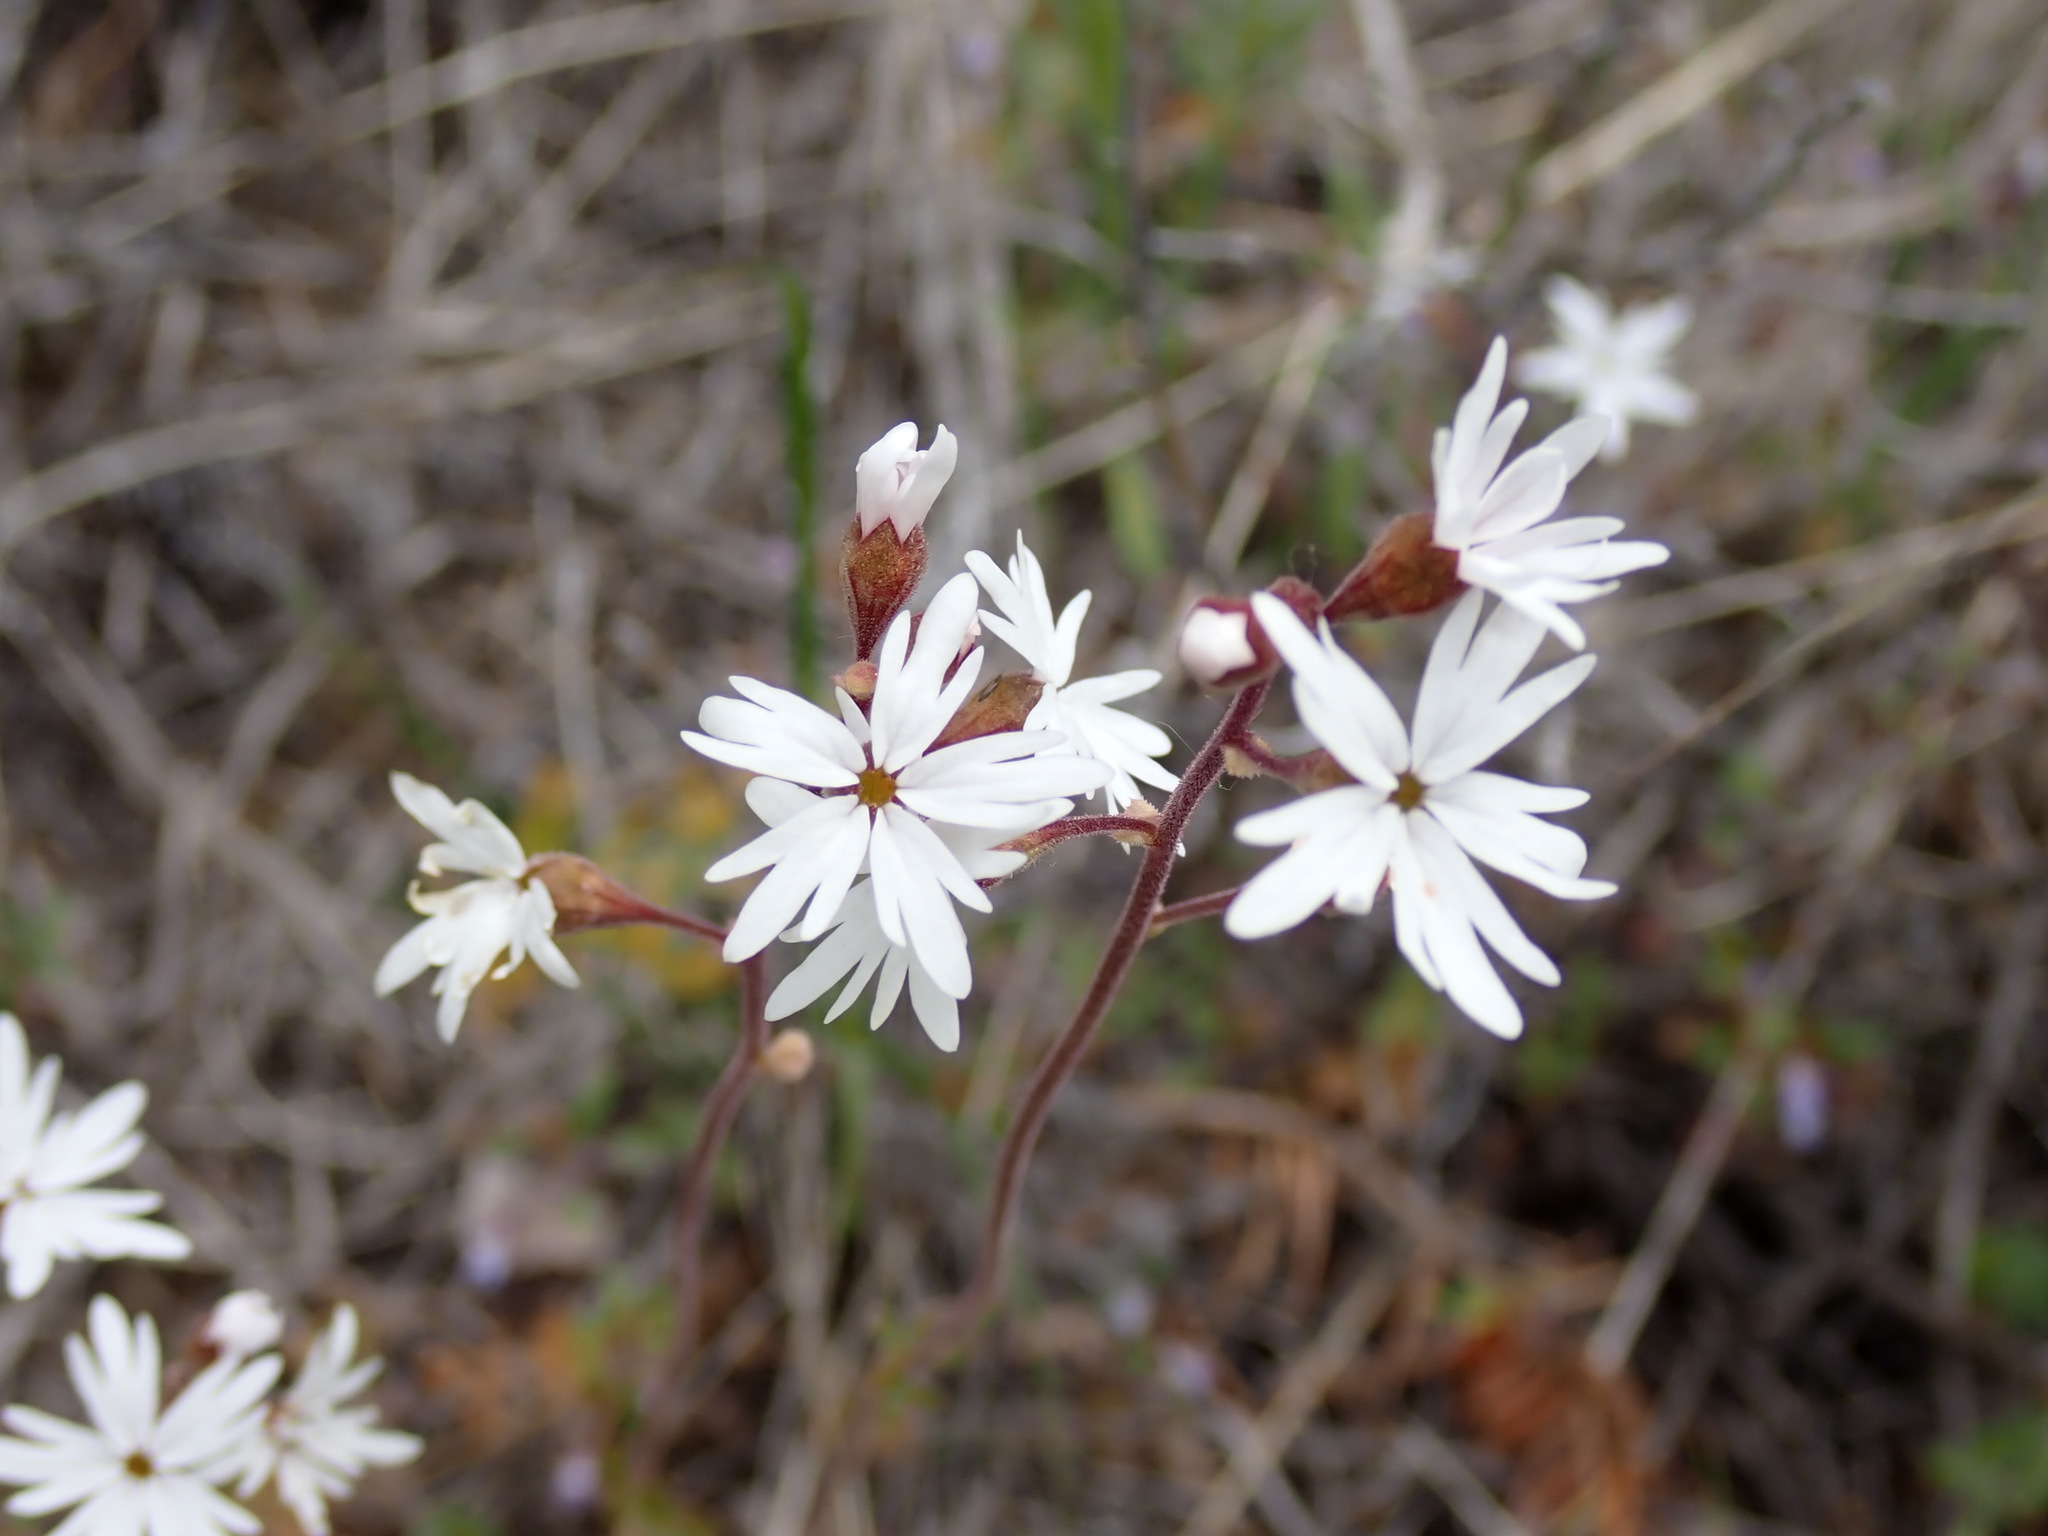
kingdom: Plantae
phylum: Tracheophyta
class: Magnoliopsida
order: Saxifragales
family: Saxifragaceae
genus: Lithophragma
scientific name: Lithophragma parviflorum
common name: Small-flowered fringe-cup
